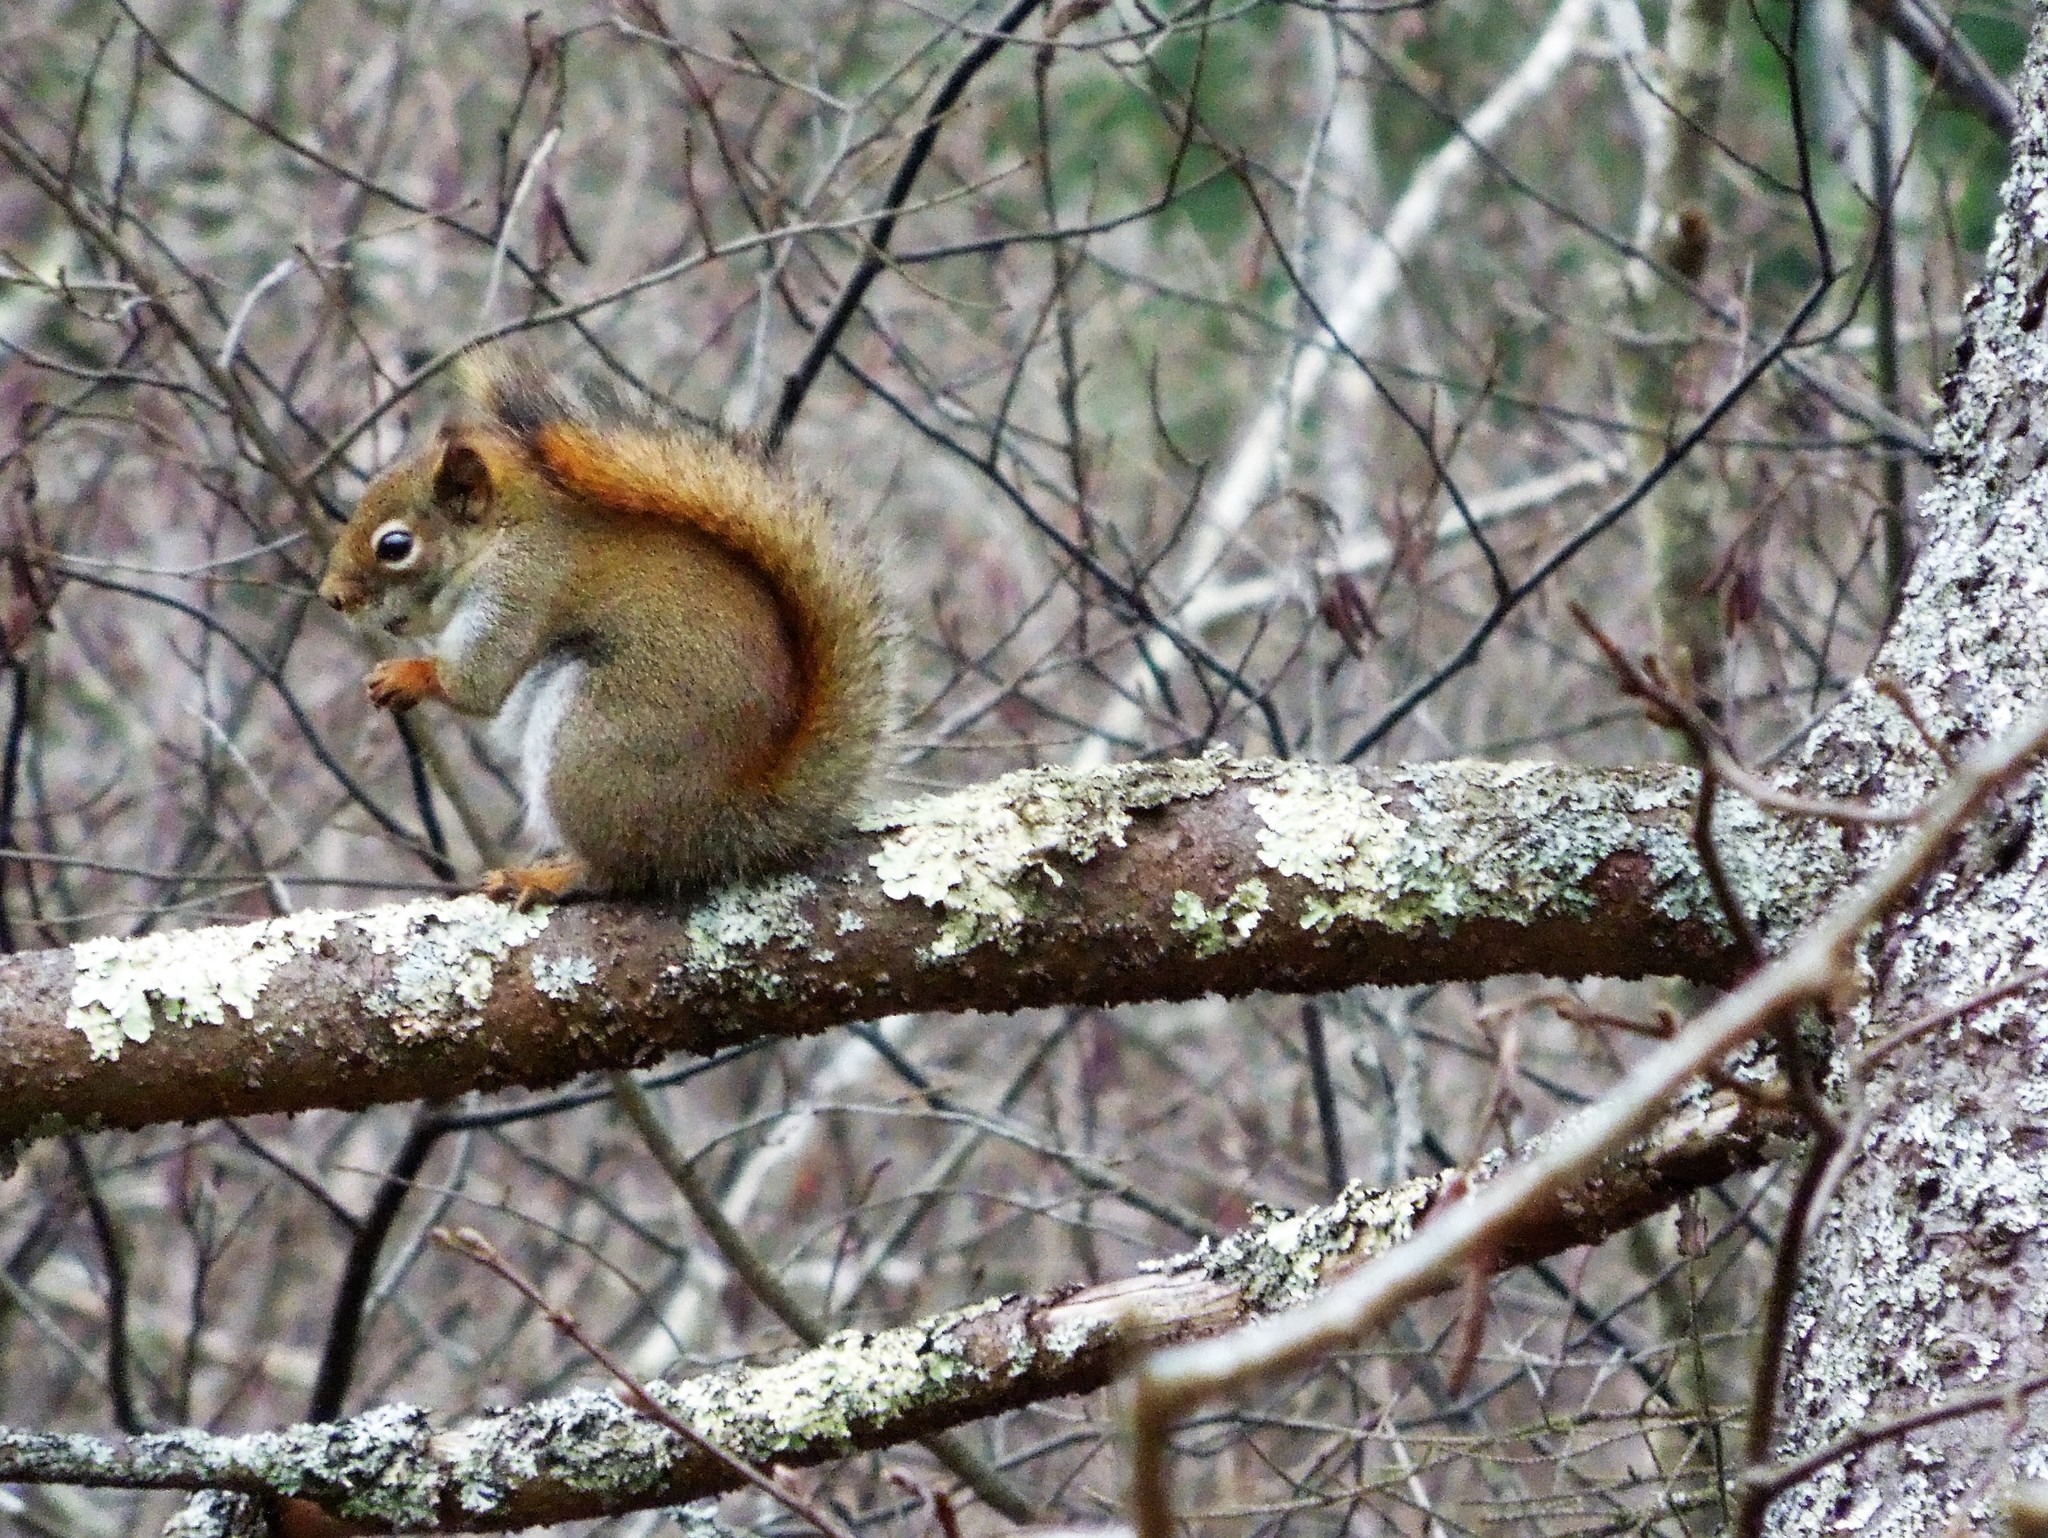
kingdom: Animalia
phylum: Chordata
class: Mammalia
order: Rodentia
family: Sciuridae
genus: Tamiasciurus
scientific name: Tamiasciurus hudsonicus
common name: Red squirrel
